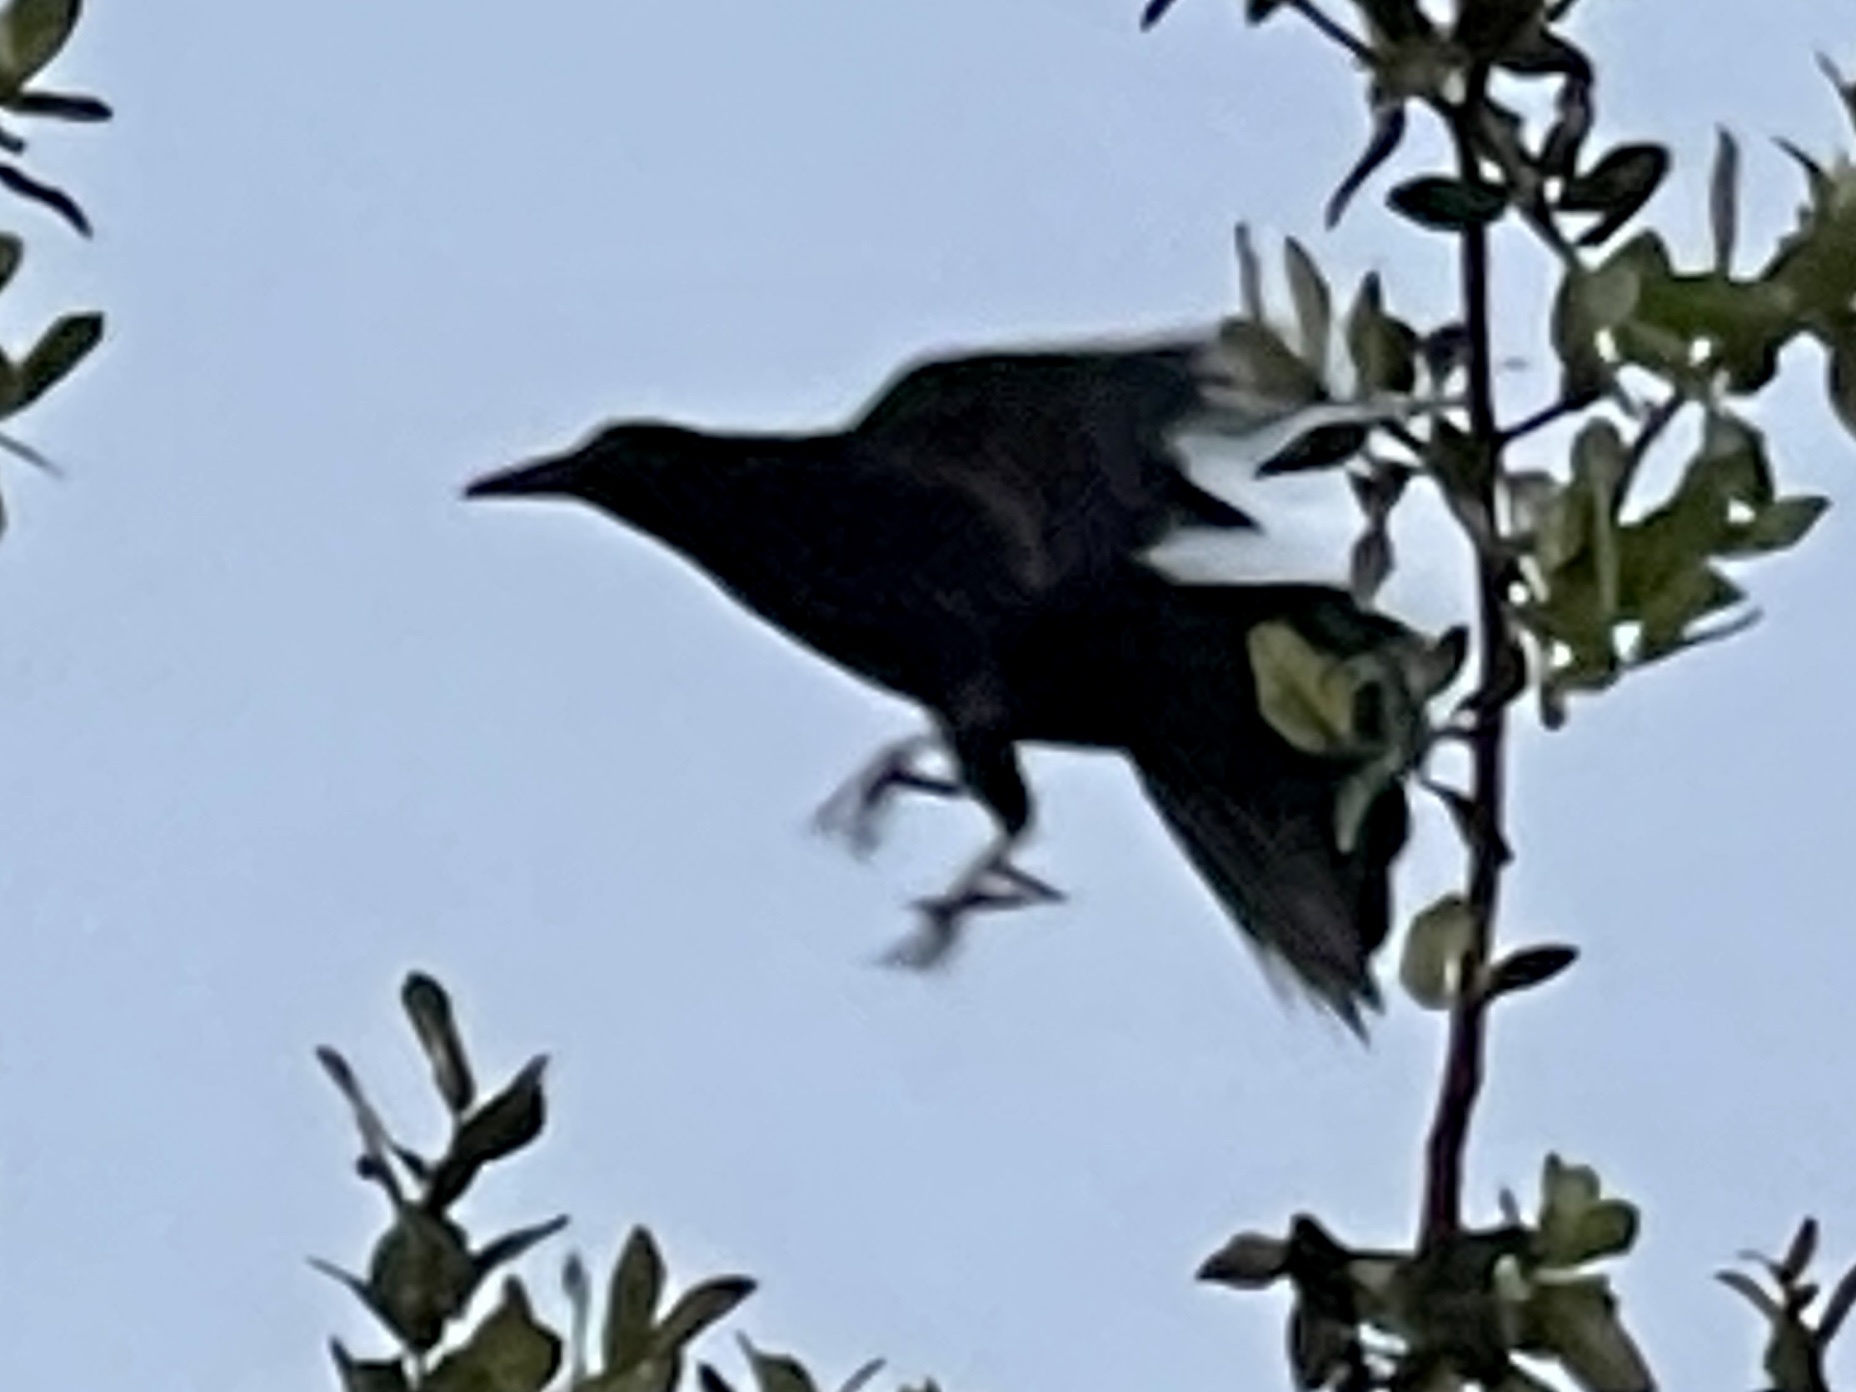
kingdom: Animalia
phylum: Chordata
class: Aves
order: Passeriformes
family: Icteridae
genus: Quiscalus
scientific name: Quiscalus mexicanus
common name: Great-tailed grackle
